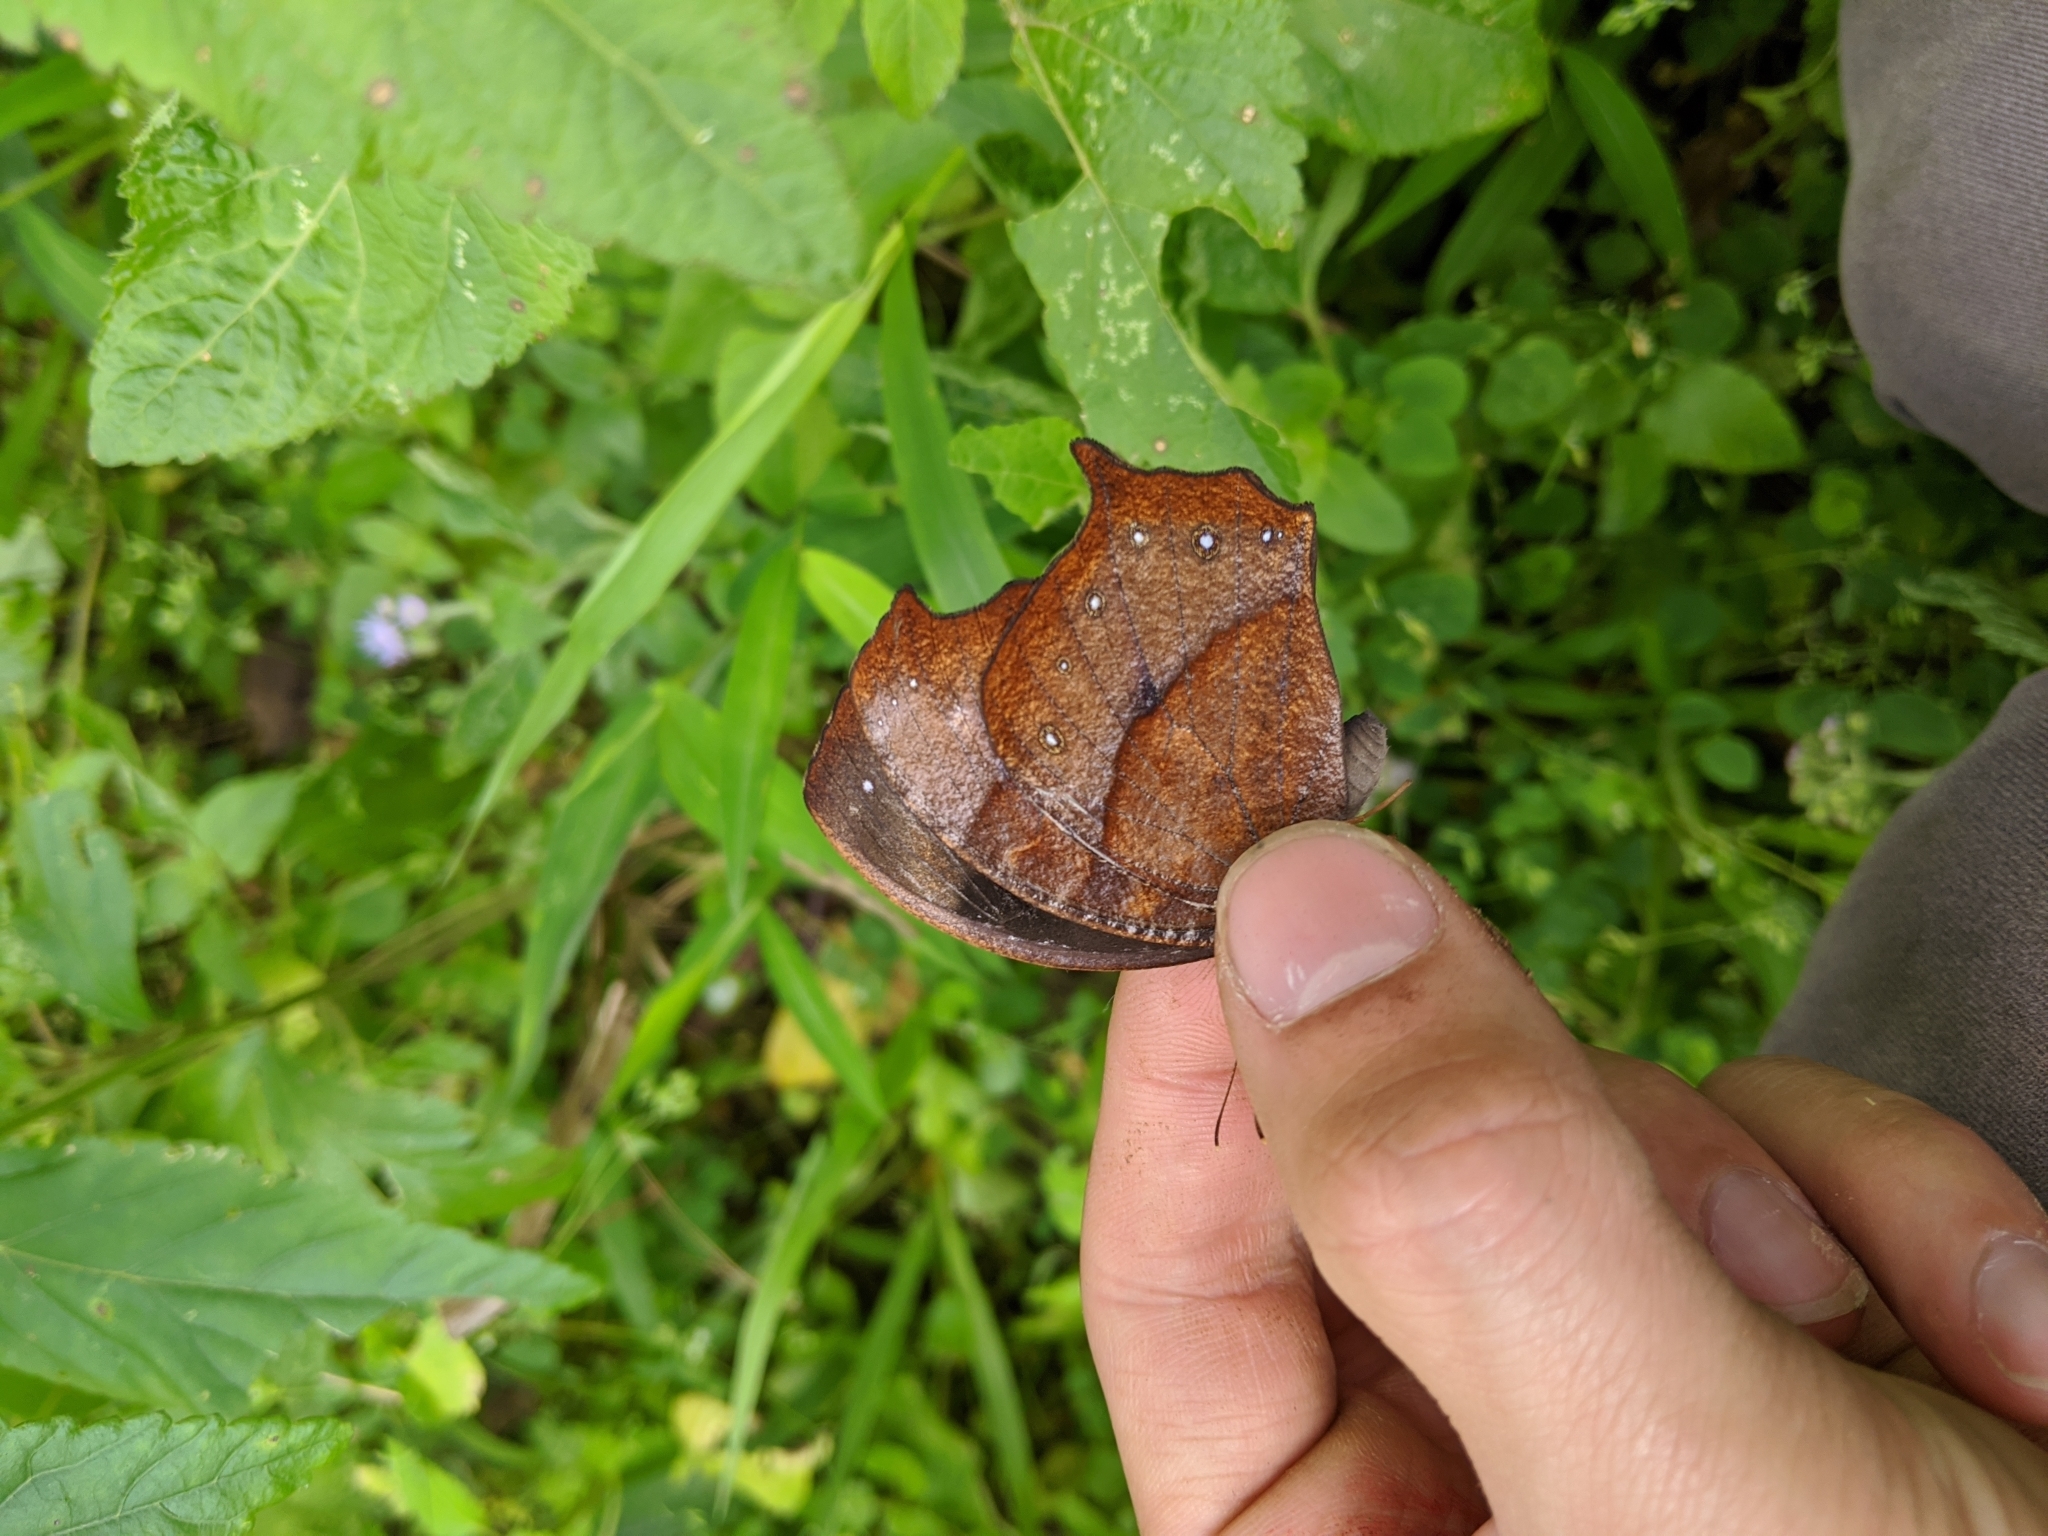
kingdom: Animalia
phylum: Arthropoda
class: Insecta
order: Lepidoptera
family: Nymphalidae
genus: Melanitis
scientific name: Melanitis phedima
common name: Dark evening brown
